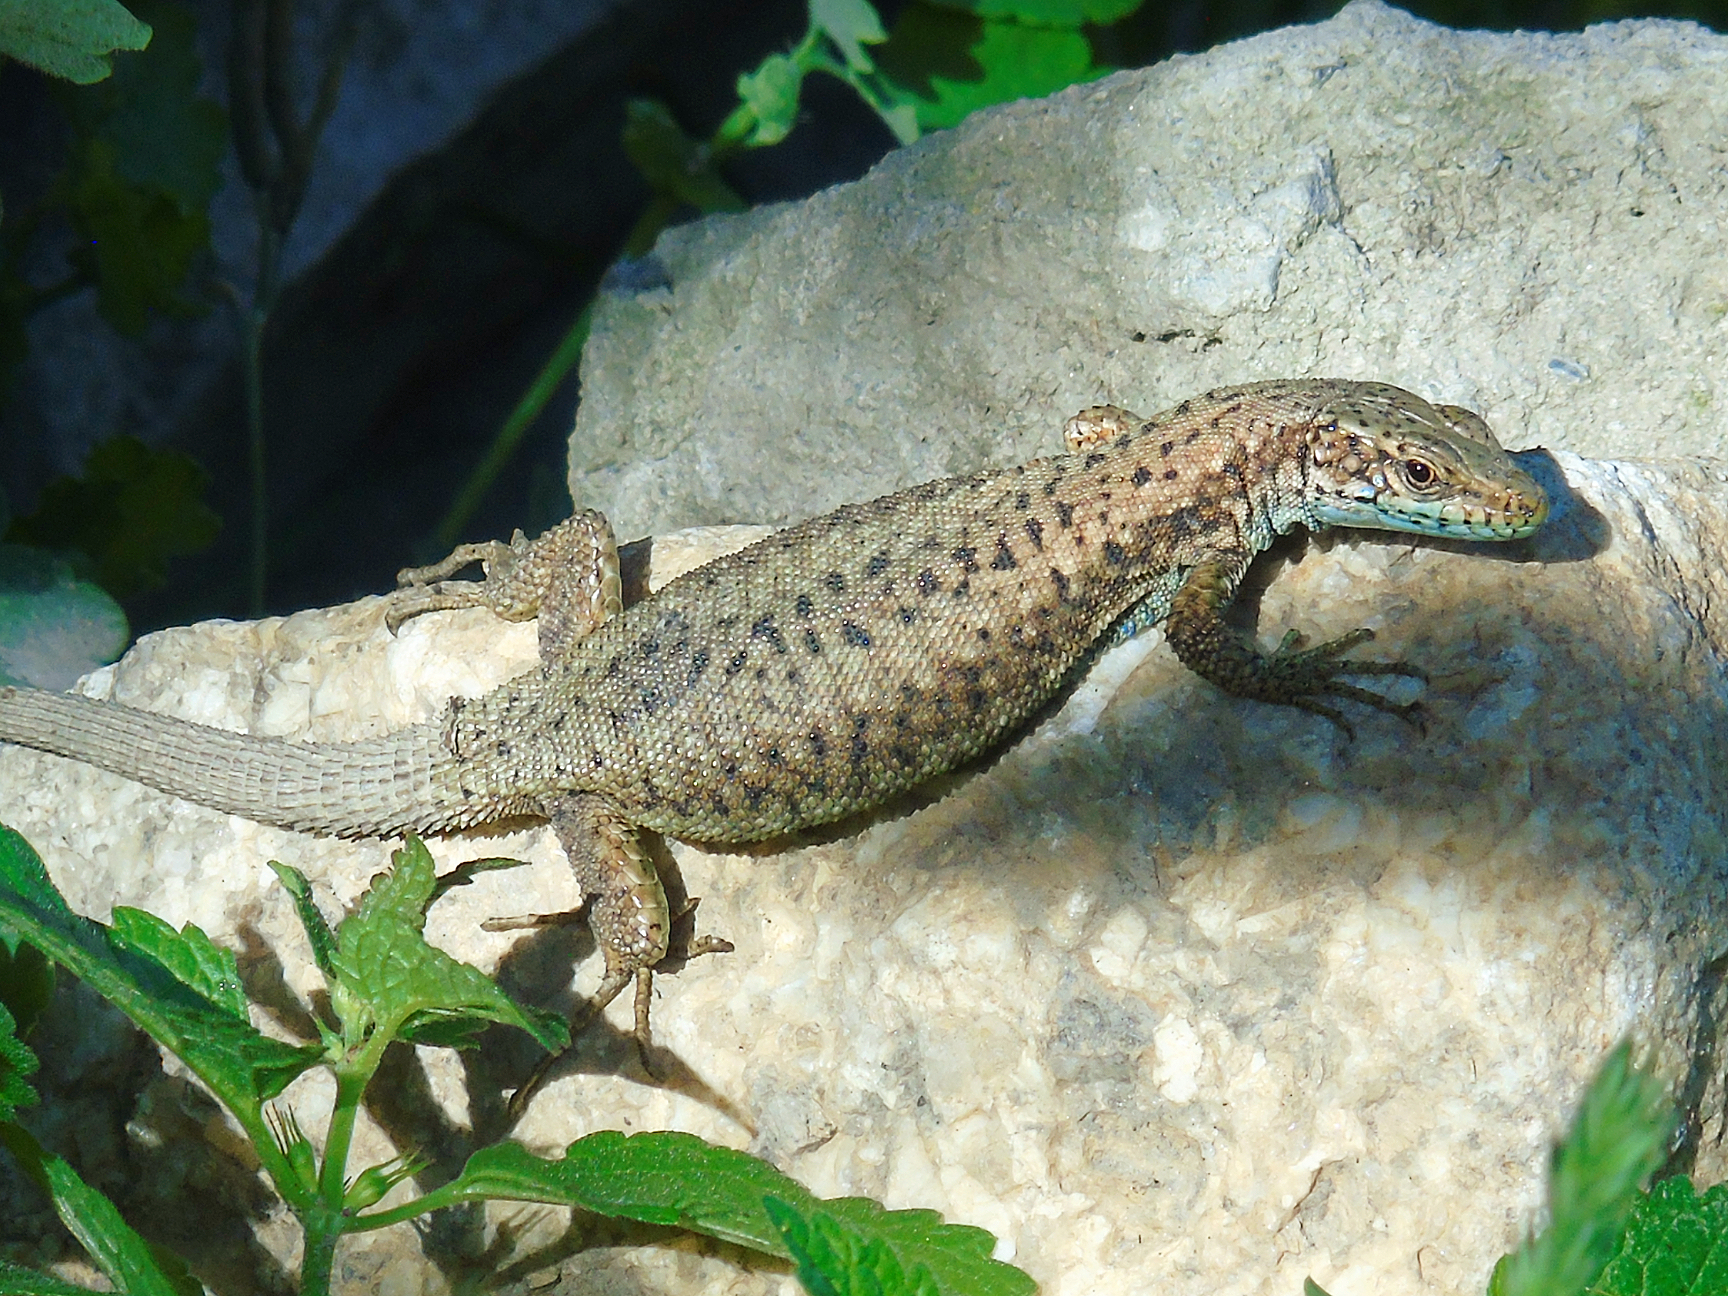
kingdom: Animalia
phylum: Chordata
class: Squamata
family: Lacertidae
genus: Darevskia
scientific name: Darevskia rudis
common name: Spiny-tailed lizard
